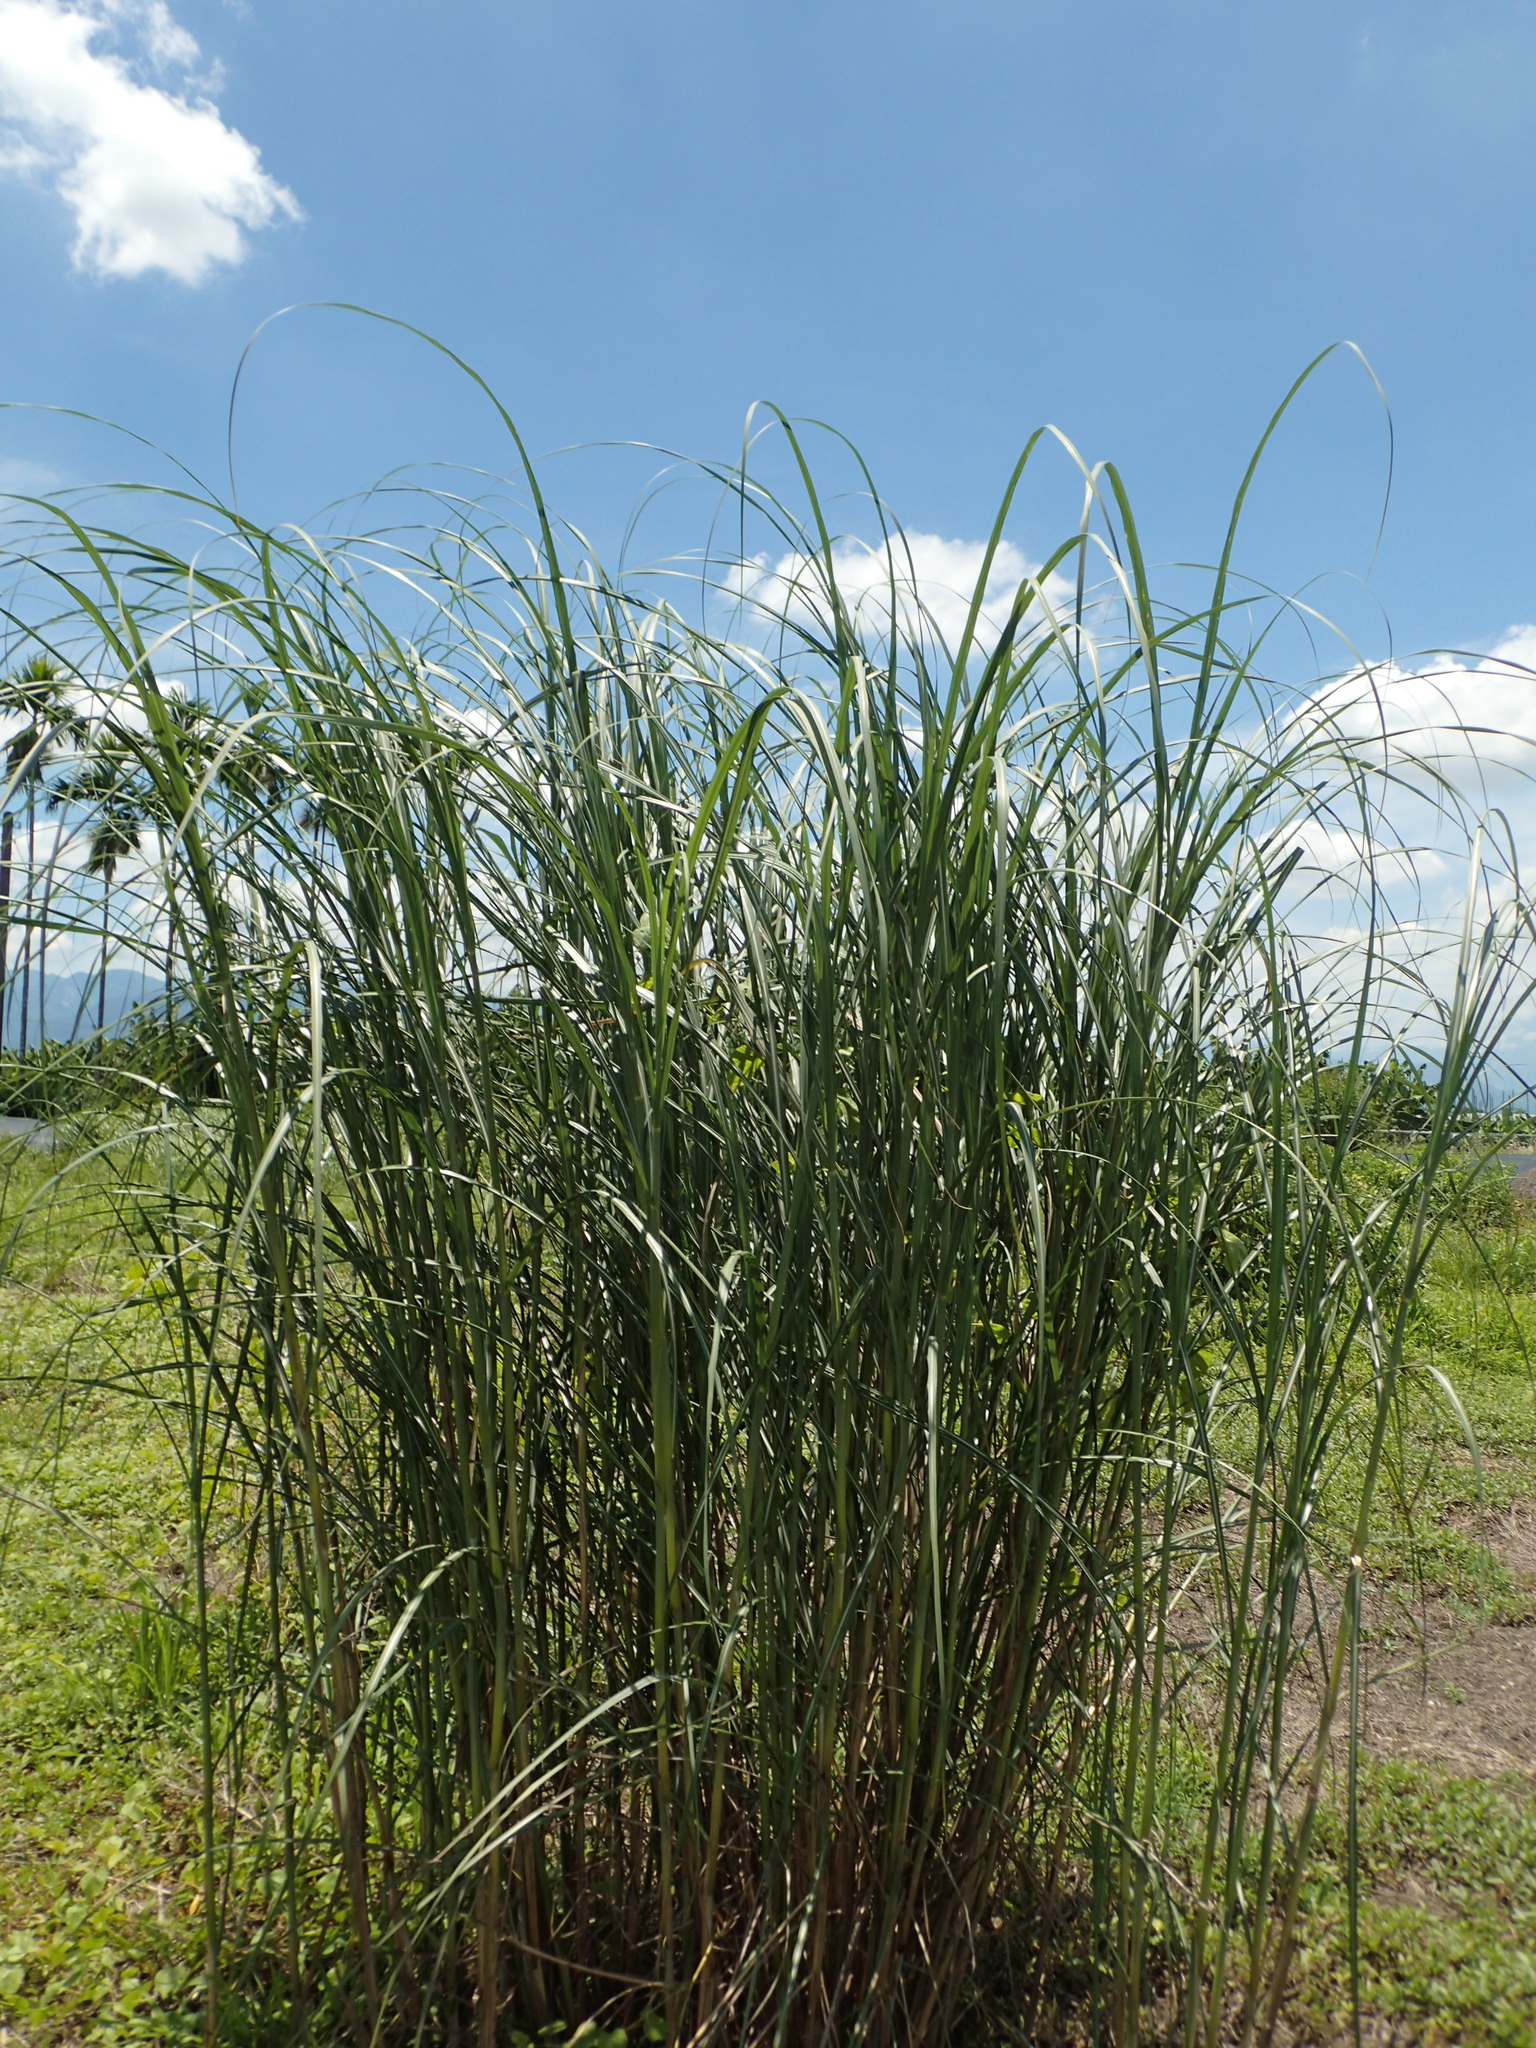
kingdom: Plantae
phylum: Tracheophyta
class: Liliopsida
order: Poales
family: Poaceae
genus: Saccharum
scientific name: Saccharum spontaneum
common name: Wild sugarcane
